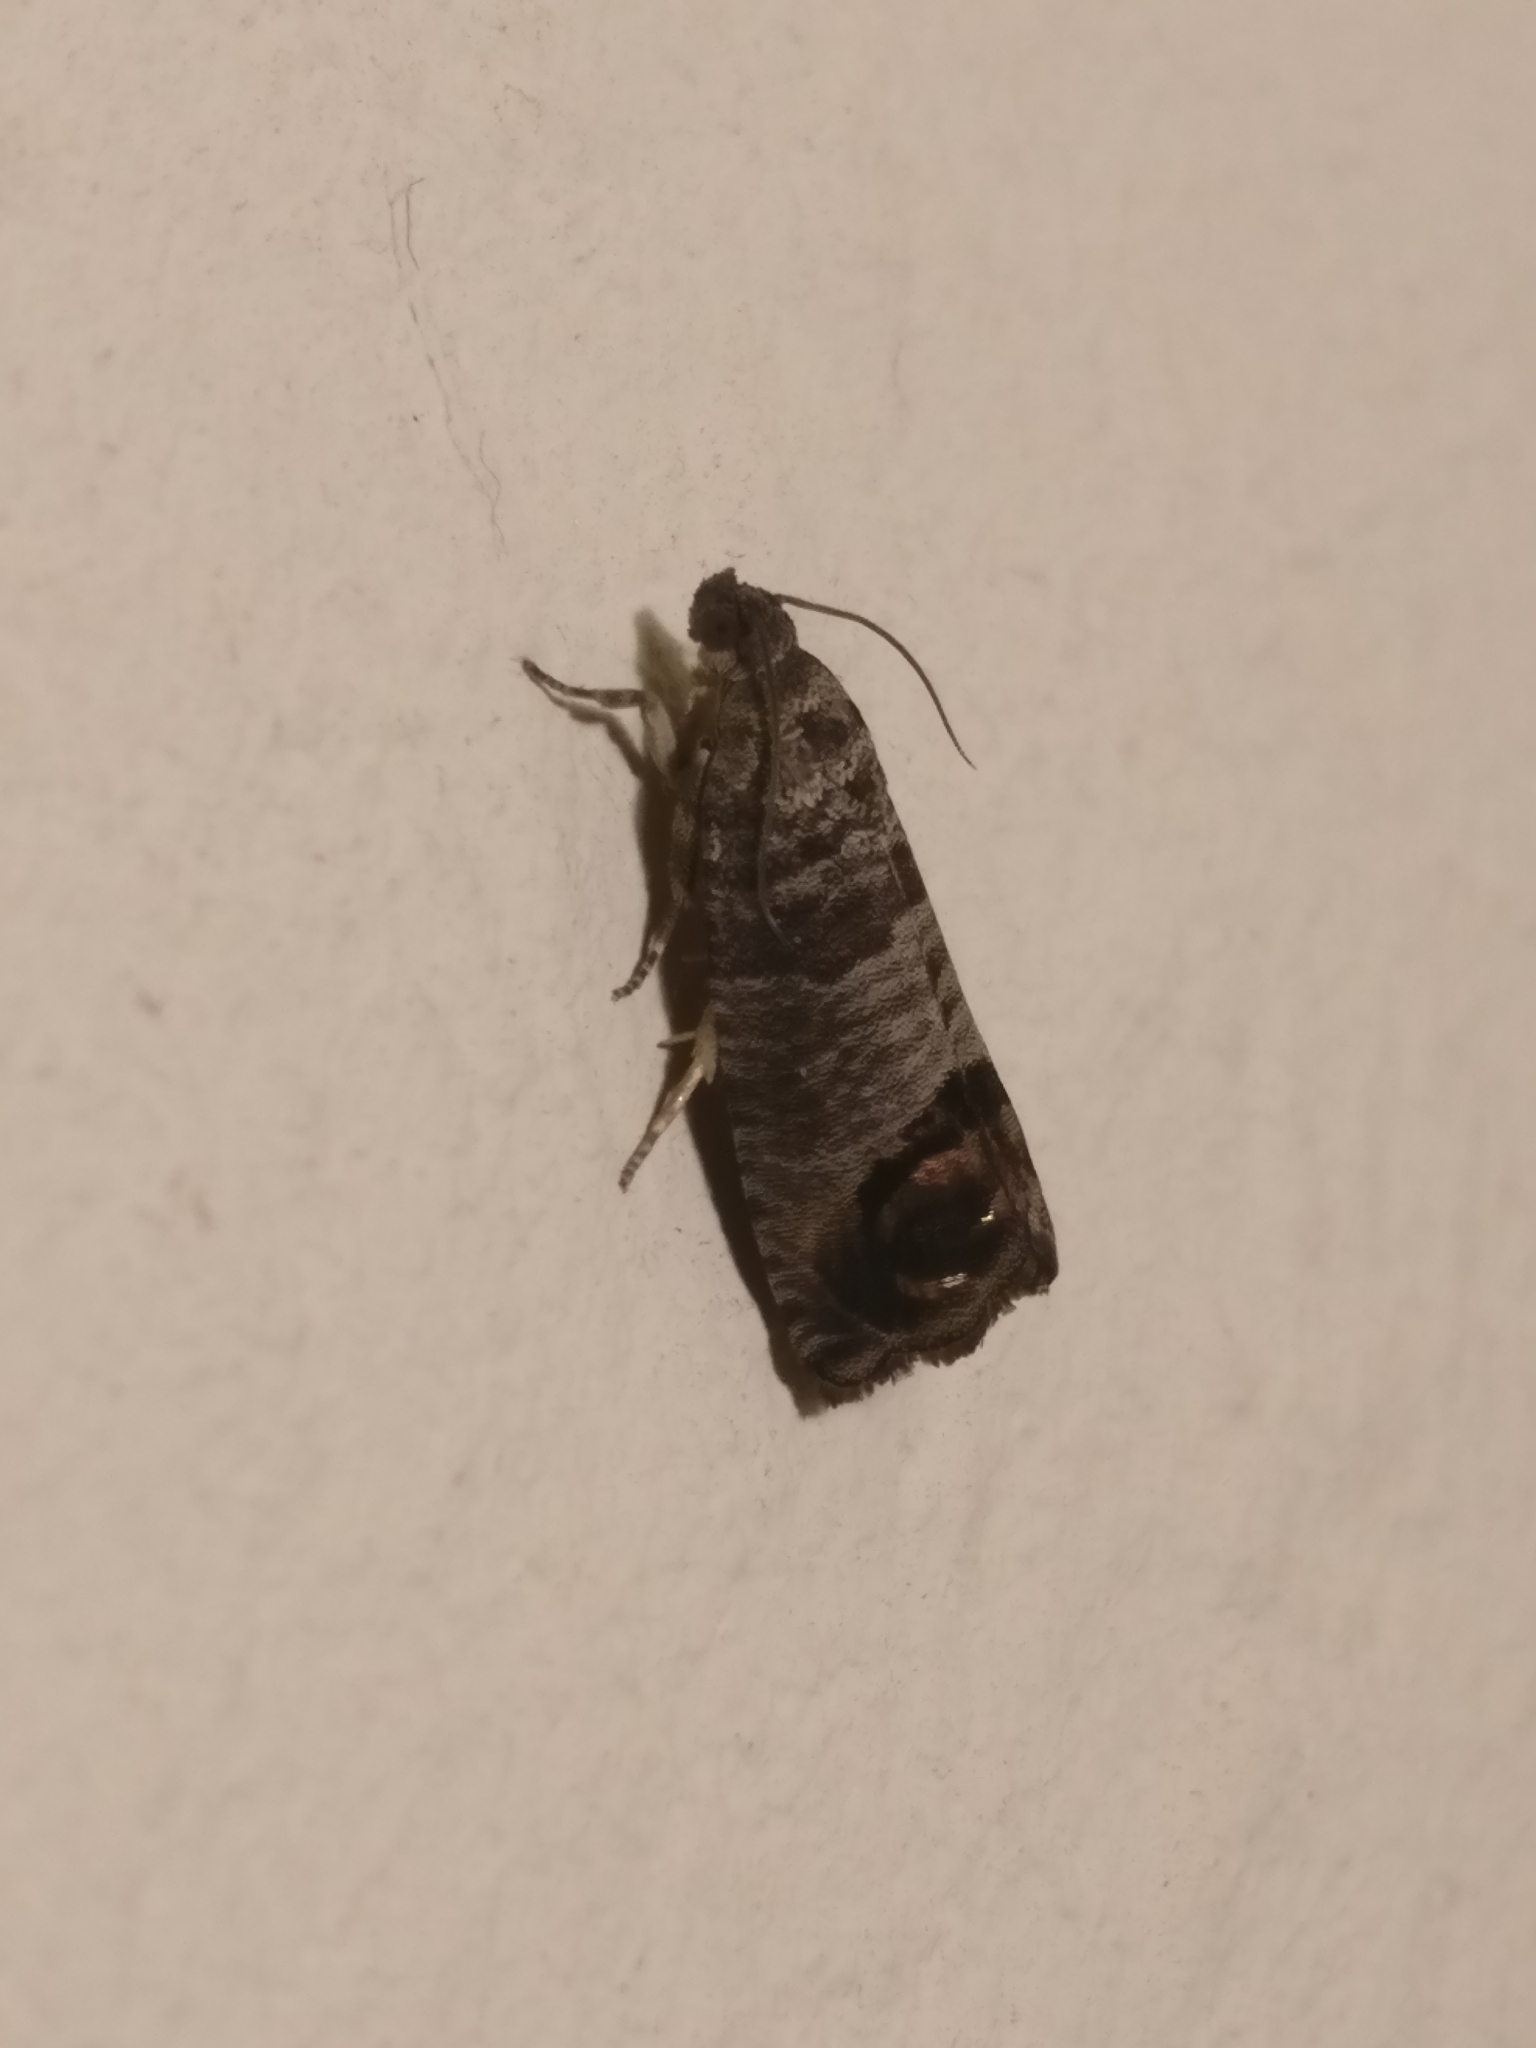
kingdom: Animalia
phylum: Arthropoda
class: Insecta
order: Lepidoptera
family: Tortricidae
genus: Cydia
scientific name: Cydia pomonella
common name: Codling moth
